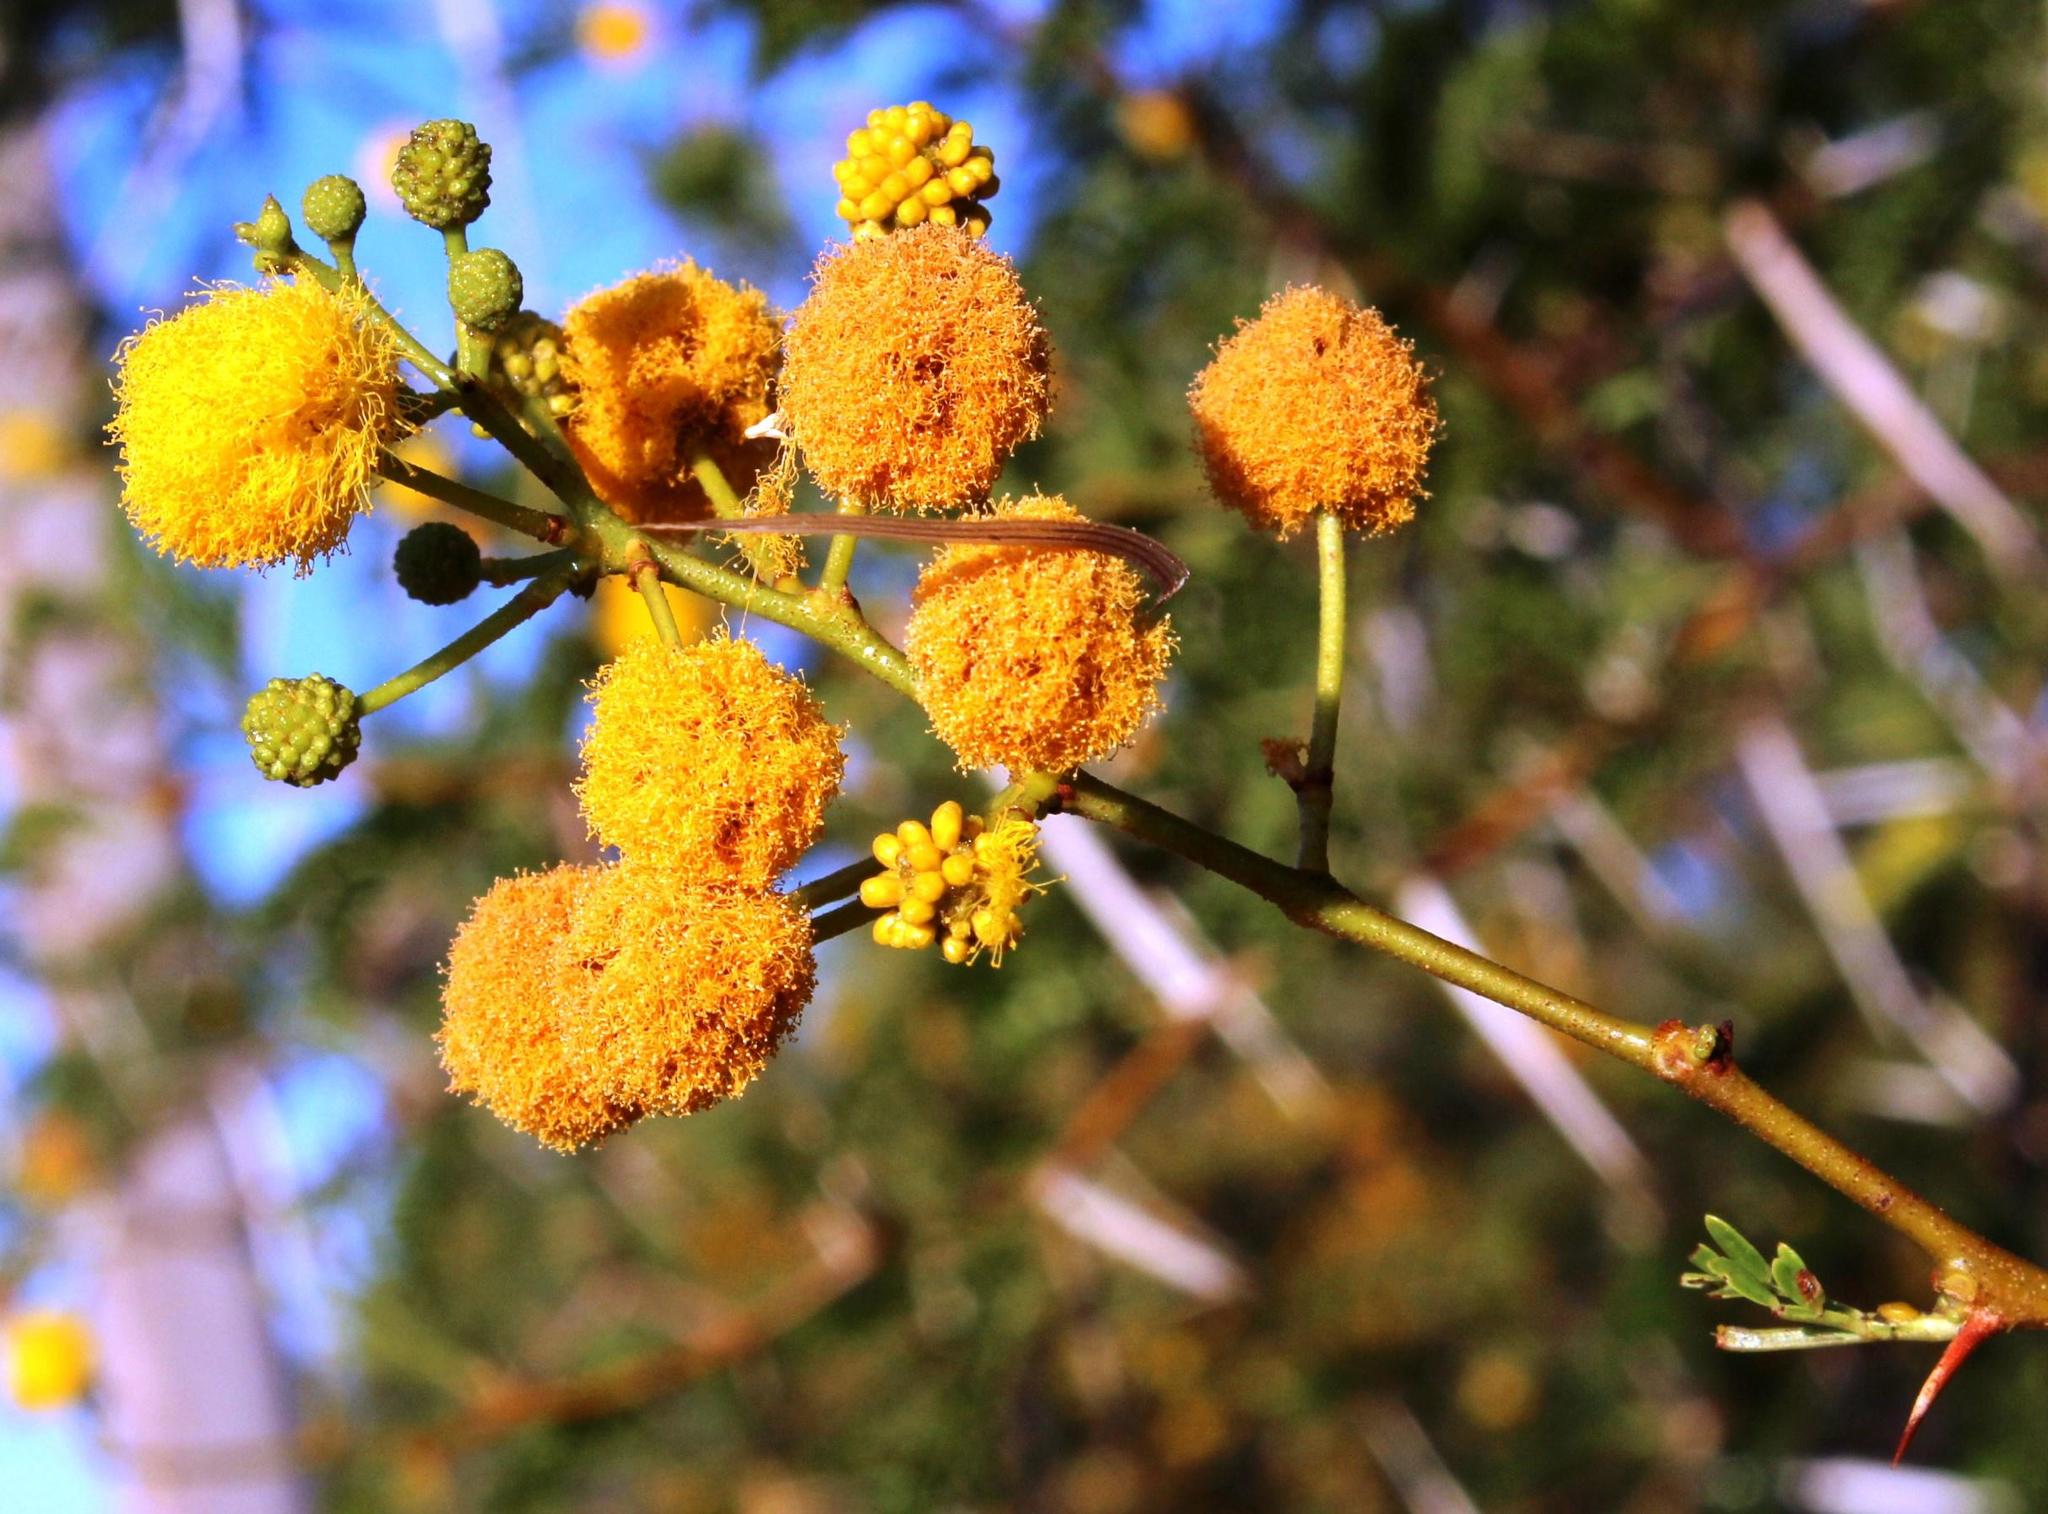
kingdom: Plantae
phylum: Tracheophyta
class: Magnoliopsida
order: Fabales
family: Fabaceae
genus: Vachellia
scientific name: Vachellia karroo
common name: Sweet thorn
